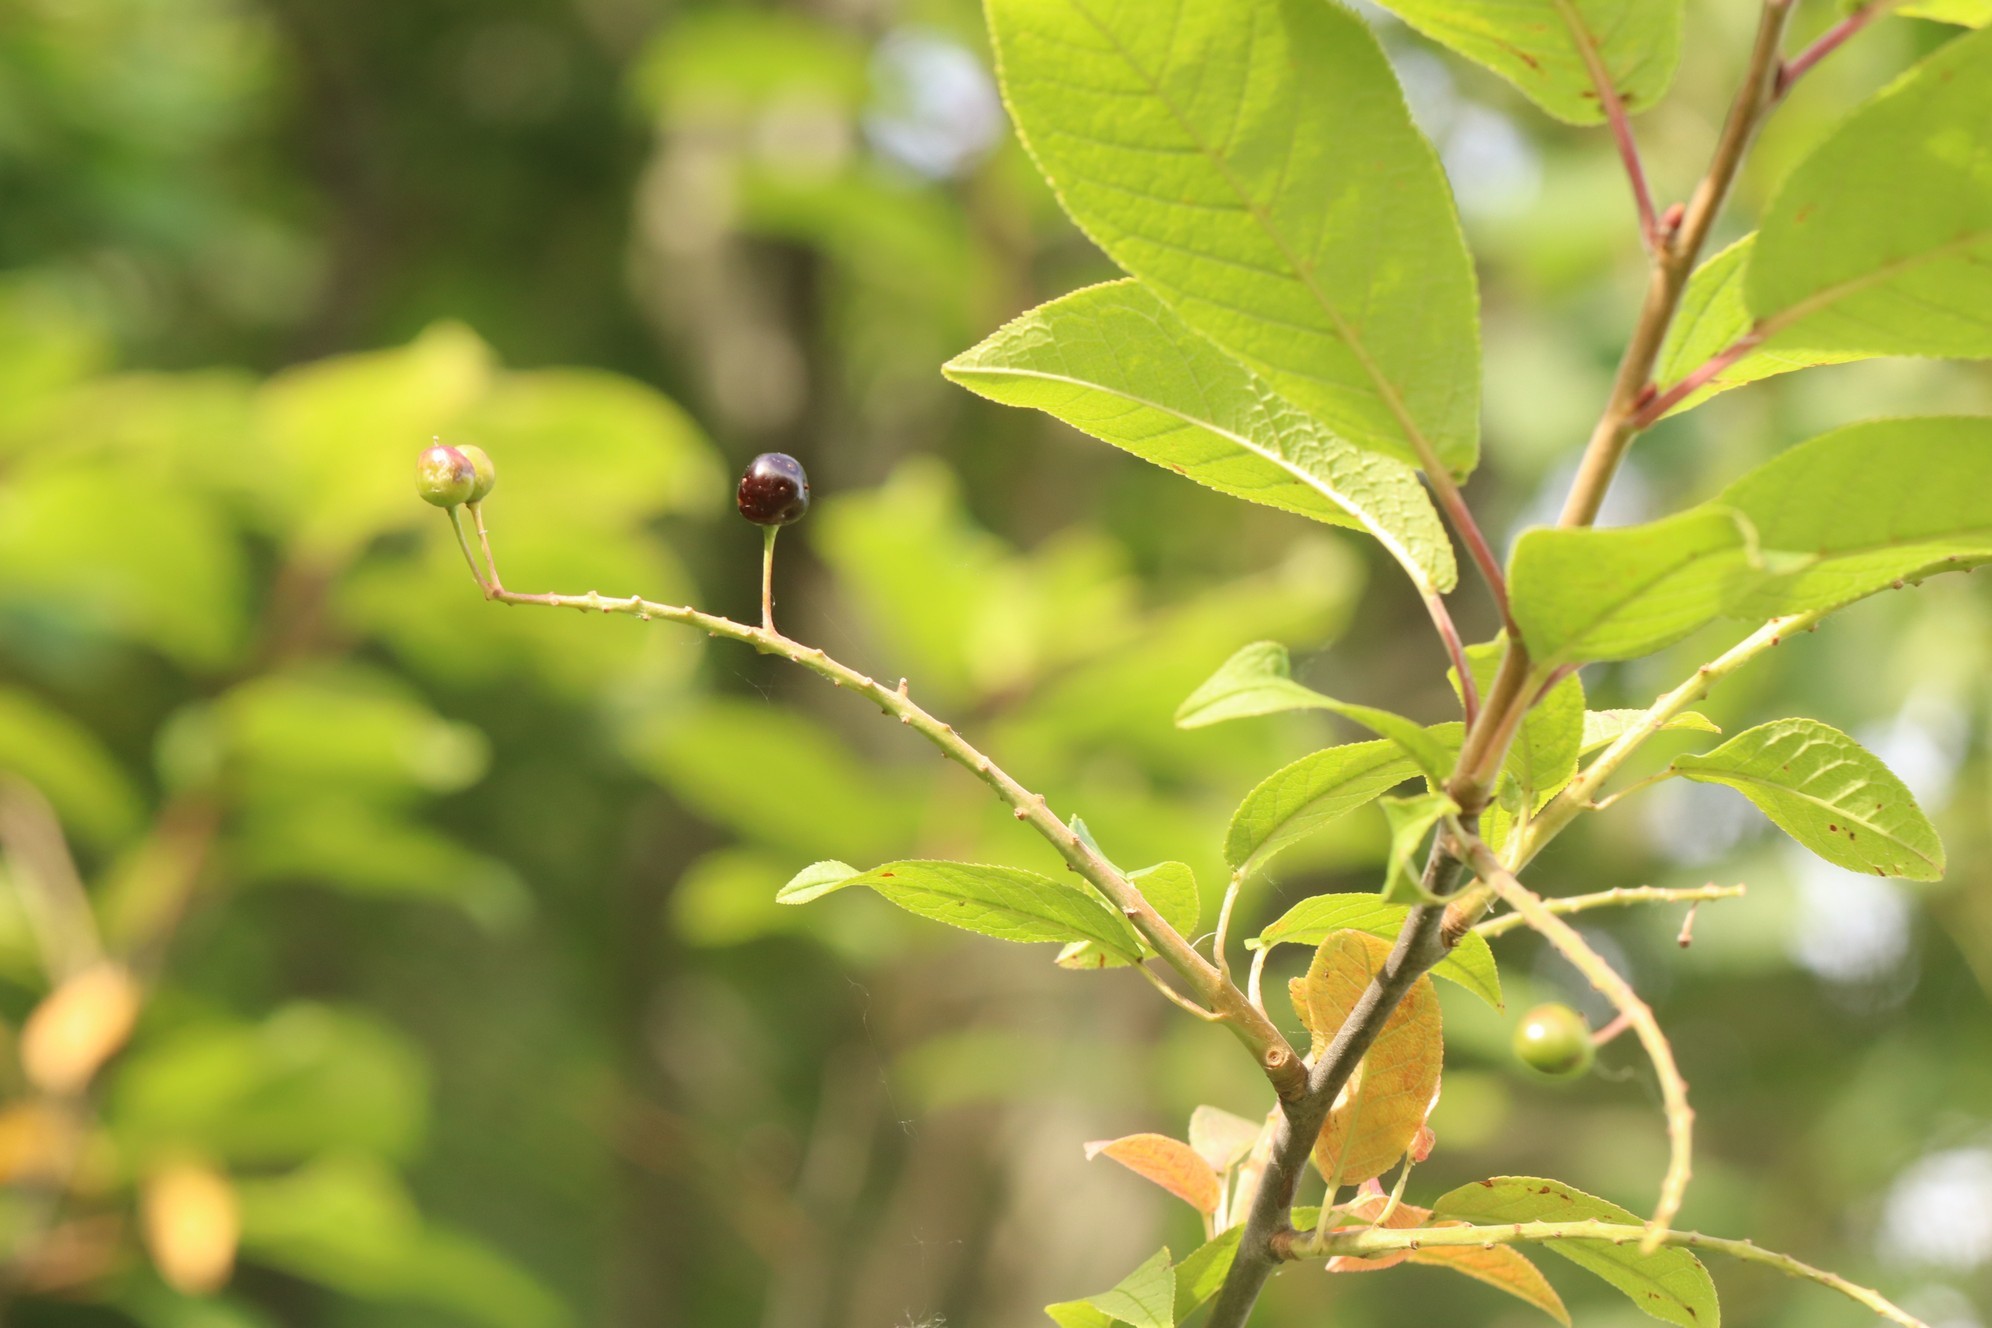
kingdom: Plantae
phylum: Tracheophyta
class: Magnoliopsida
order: Rosales
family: Rosaceae
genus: Prunus
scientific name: Prunus padus
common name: Bird cherry
